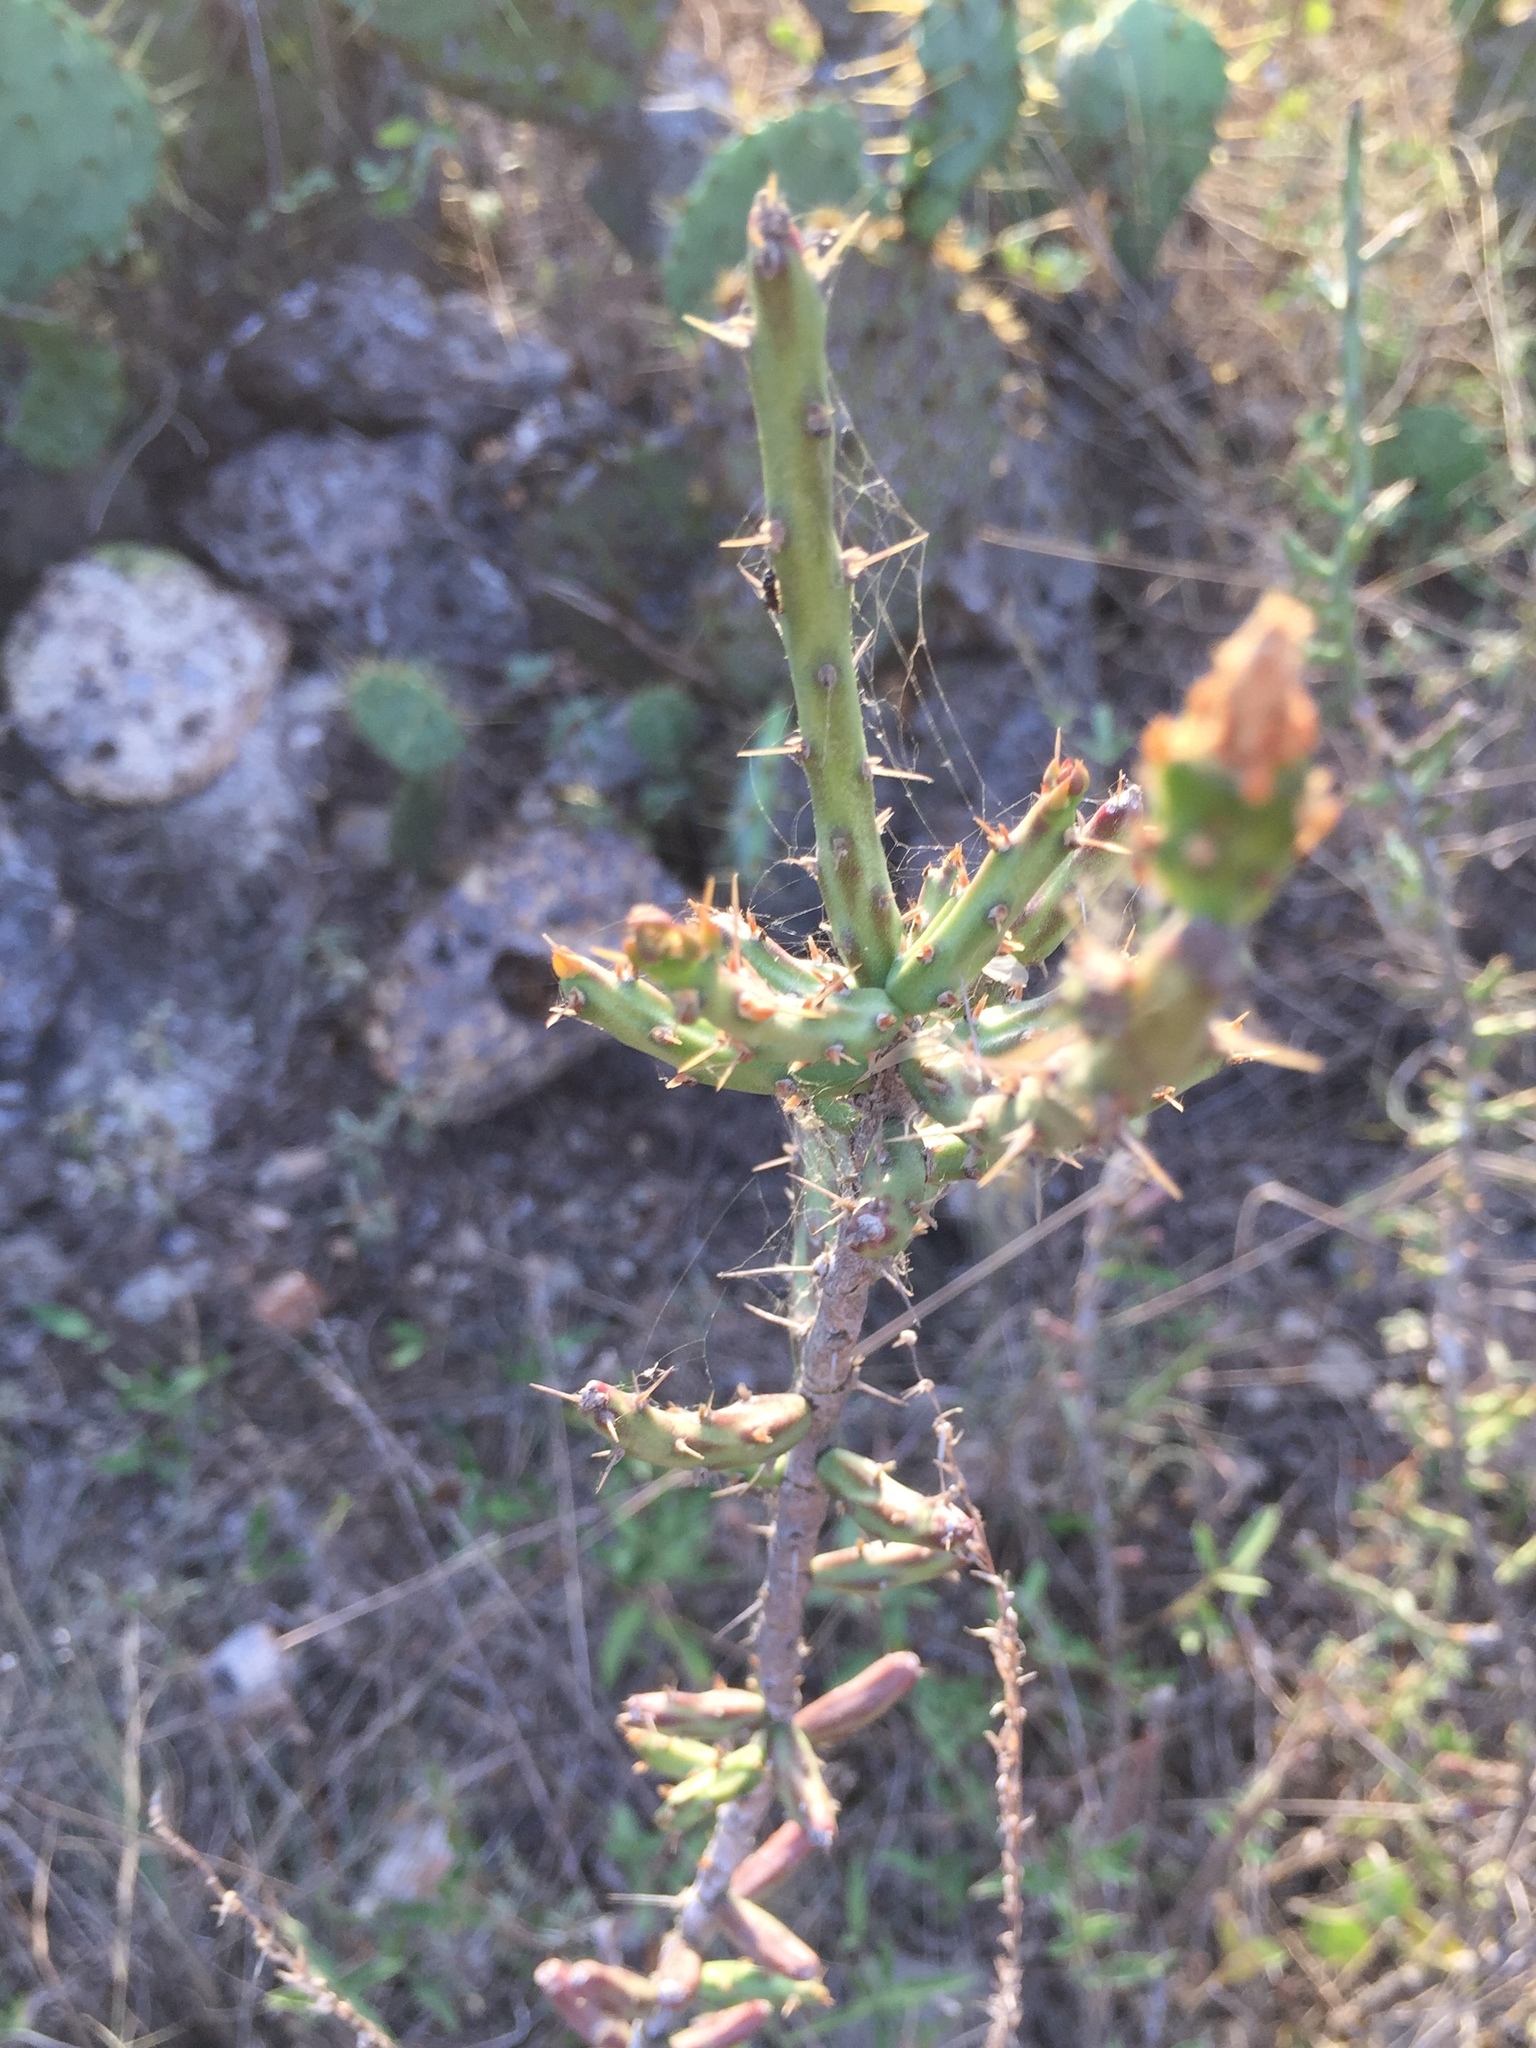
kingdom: Plantae
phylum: Tracheophyta
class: Magnoliopsida
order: Caryophyllales
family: Cactaceae
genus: Cylindropuntia
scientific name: Cylindropuntia leptocaulis
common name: Christmas cactus
